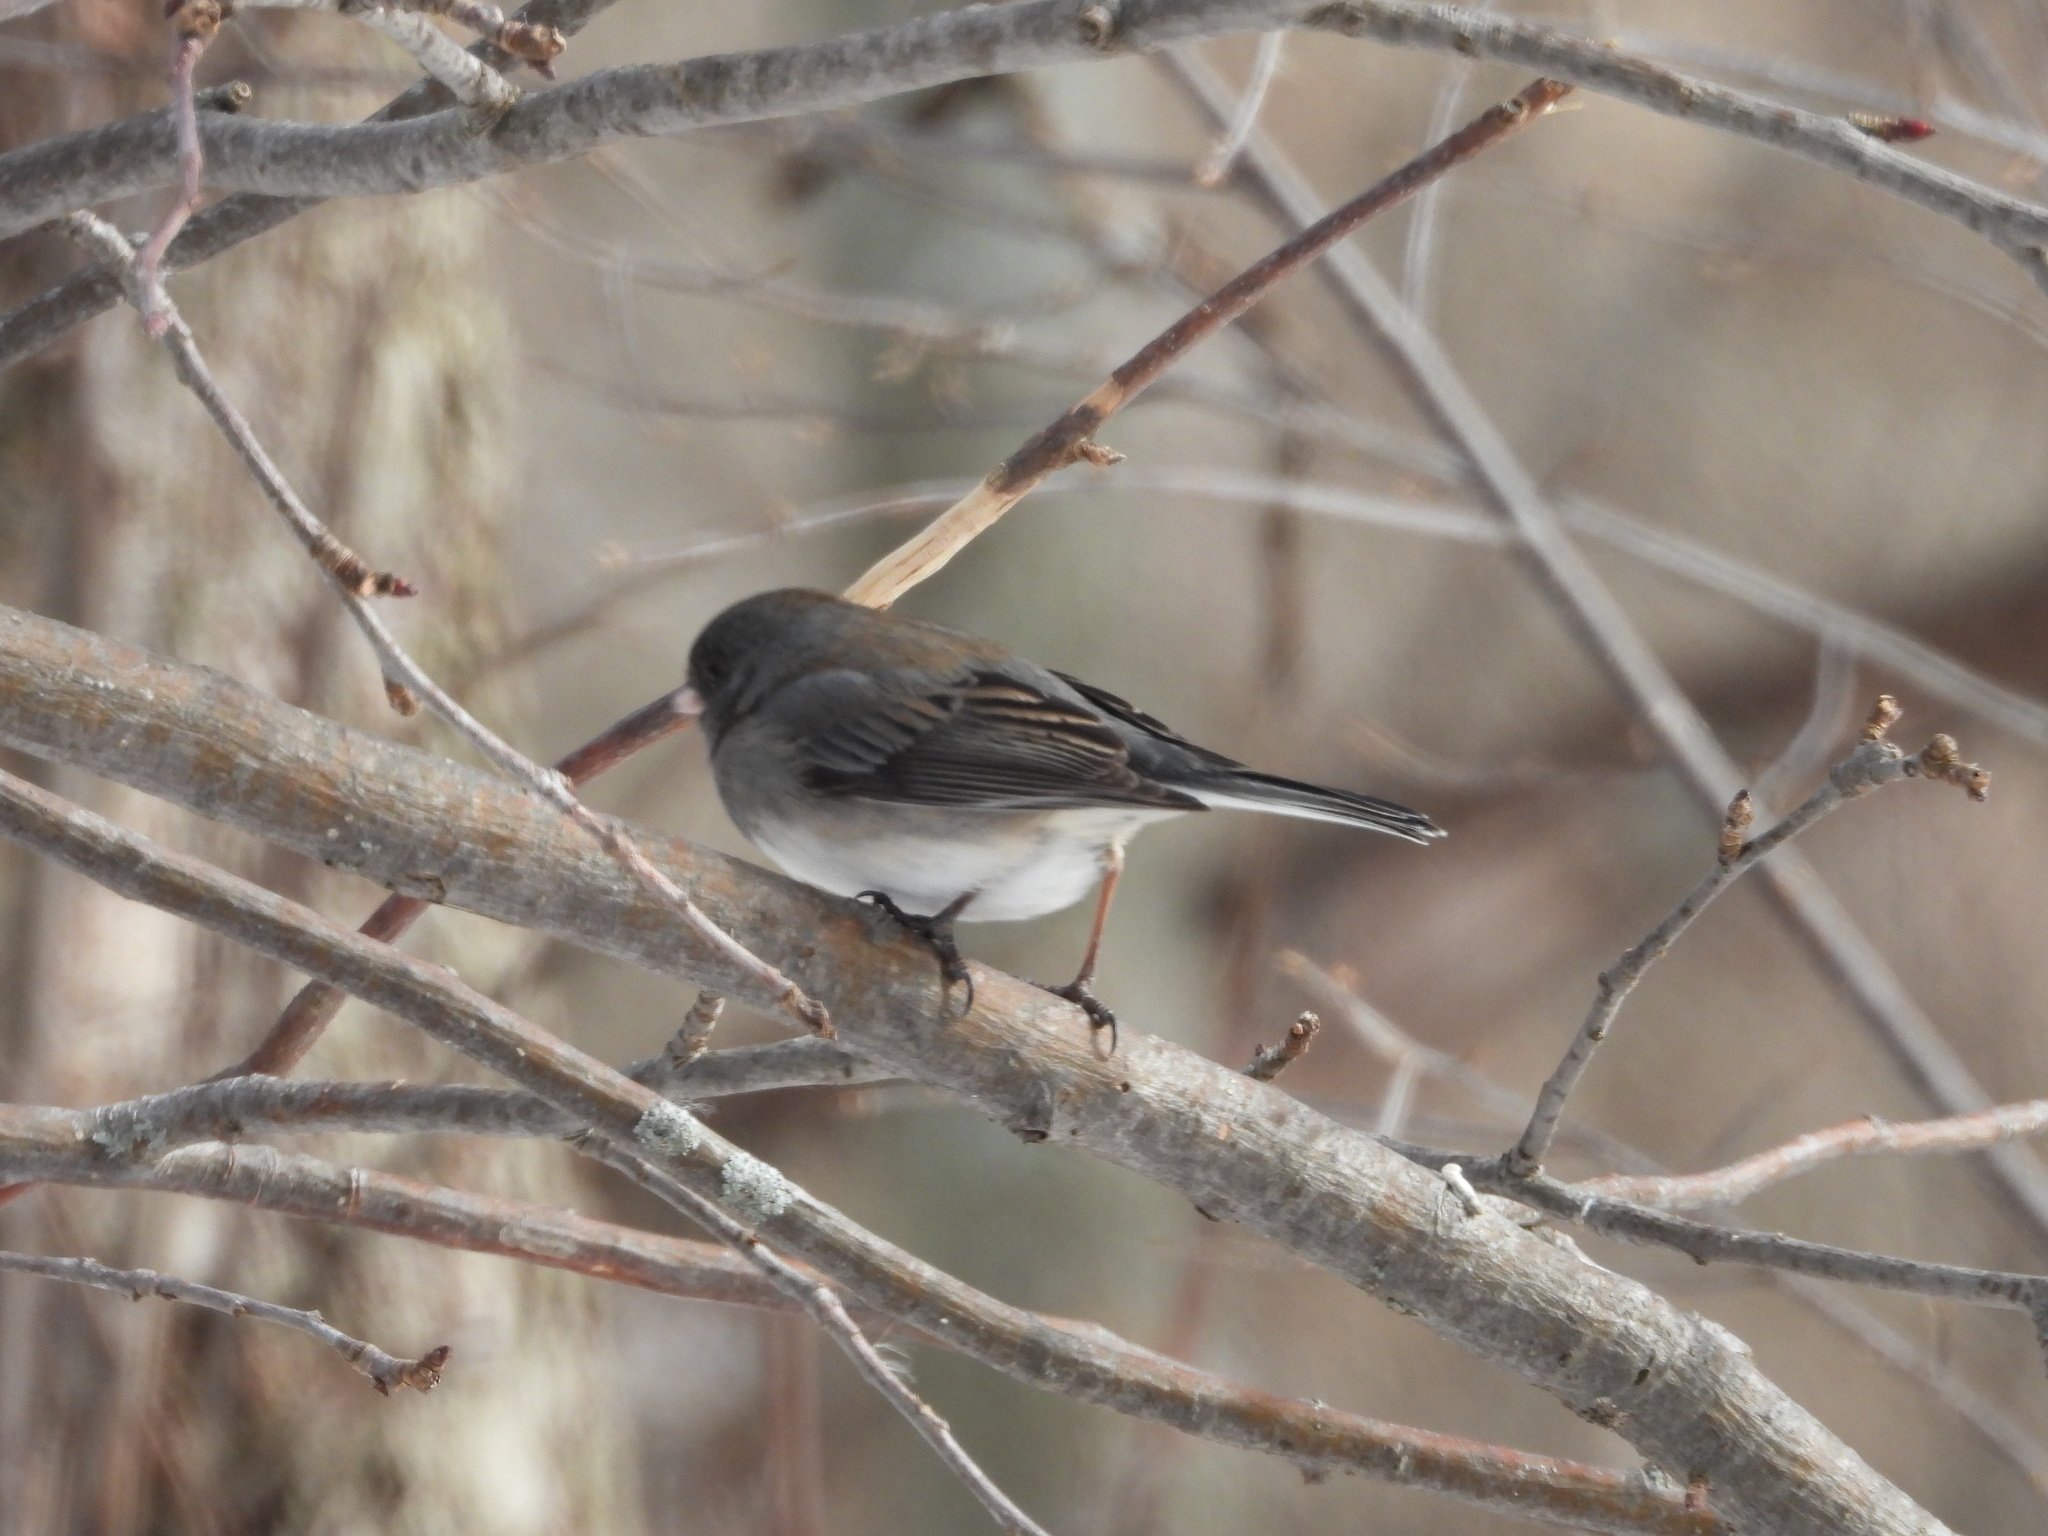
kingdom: Animalia
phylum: Chordata
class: Aves
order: Passeriformes
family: Passerellidae
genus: Junco
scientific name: Junco hyemalis
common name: Dark-eyed junco
